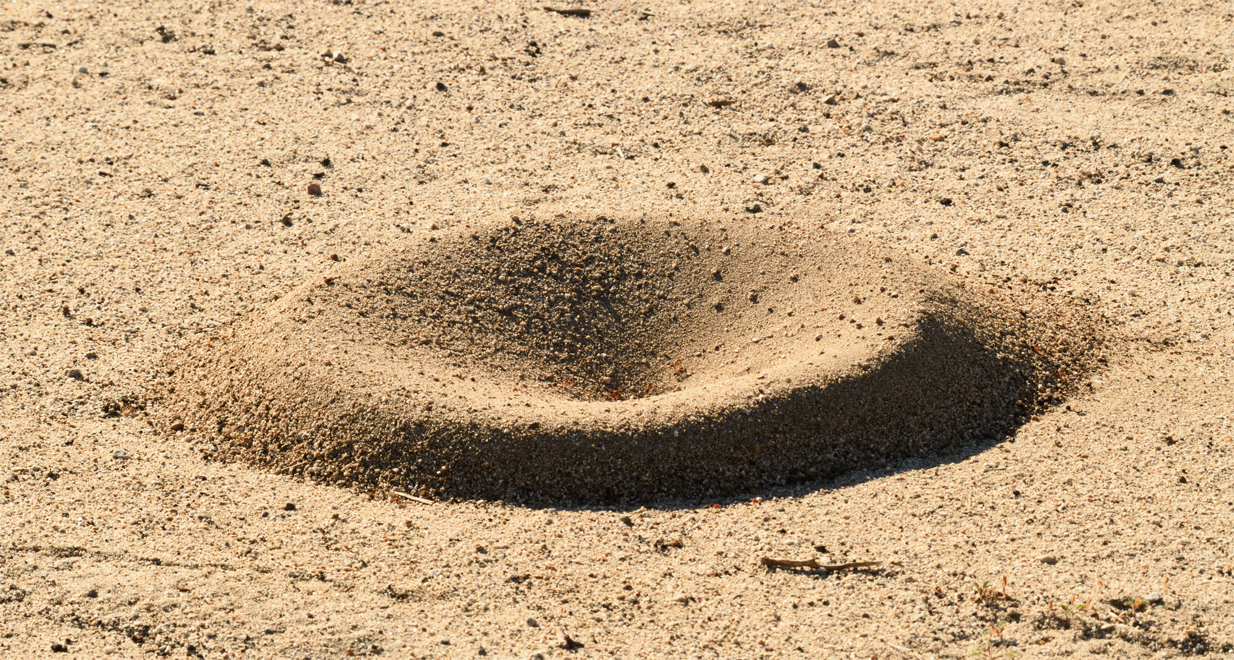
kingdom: Animalia
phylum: Arthropoda
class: Insecta
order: Hymenoptera
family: Formicidae
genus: Pogonomyrmex
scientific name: Pogonomyrmex californicus
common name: California harvester ant
